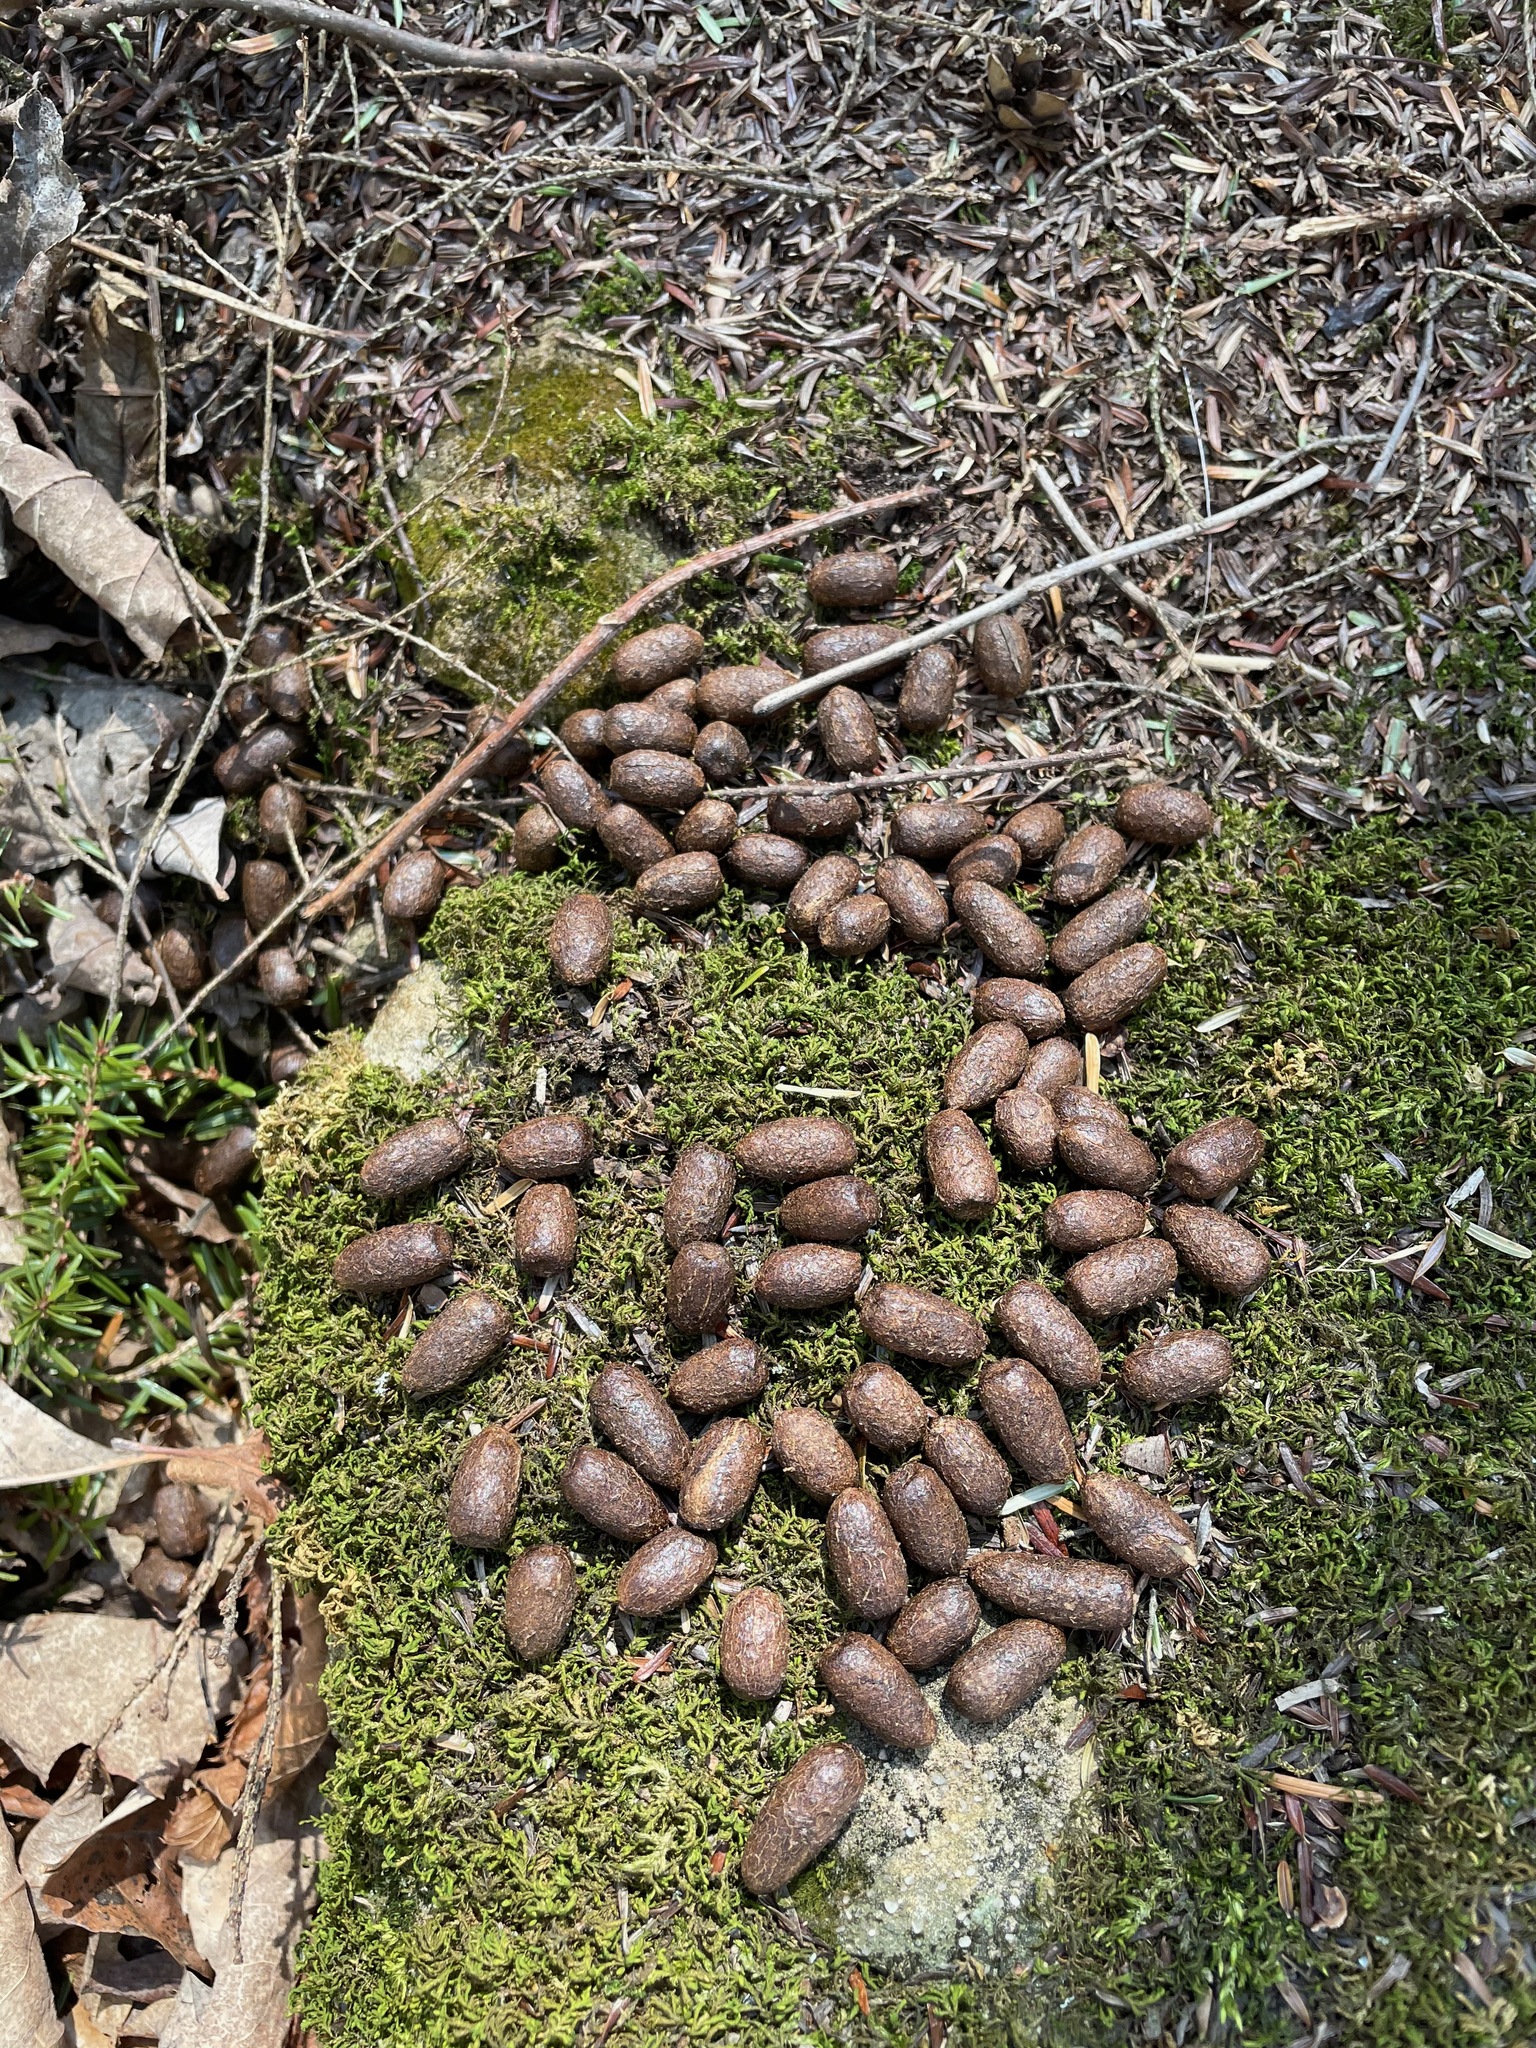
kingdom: Animalia
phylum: Chordata
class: Mammalia
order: Artiodactyla
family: Cervidae
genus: Odocoileus
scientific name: Odocoileus virginianus
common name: White-tailed deer
